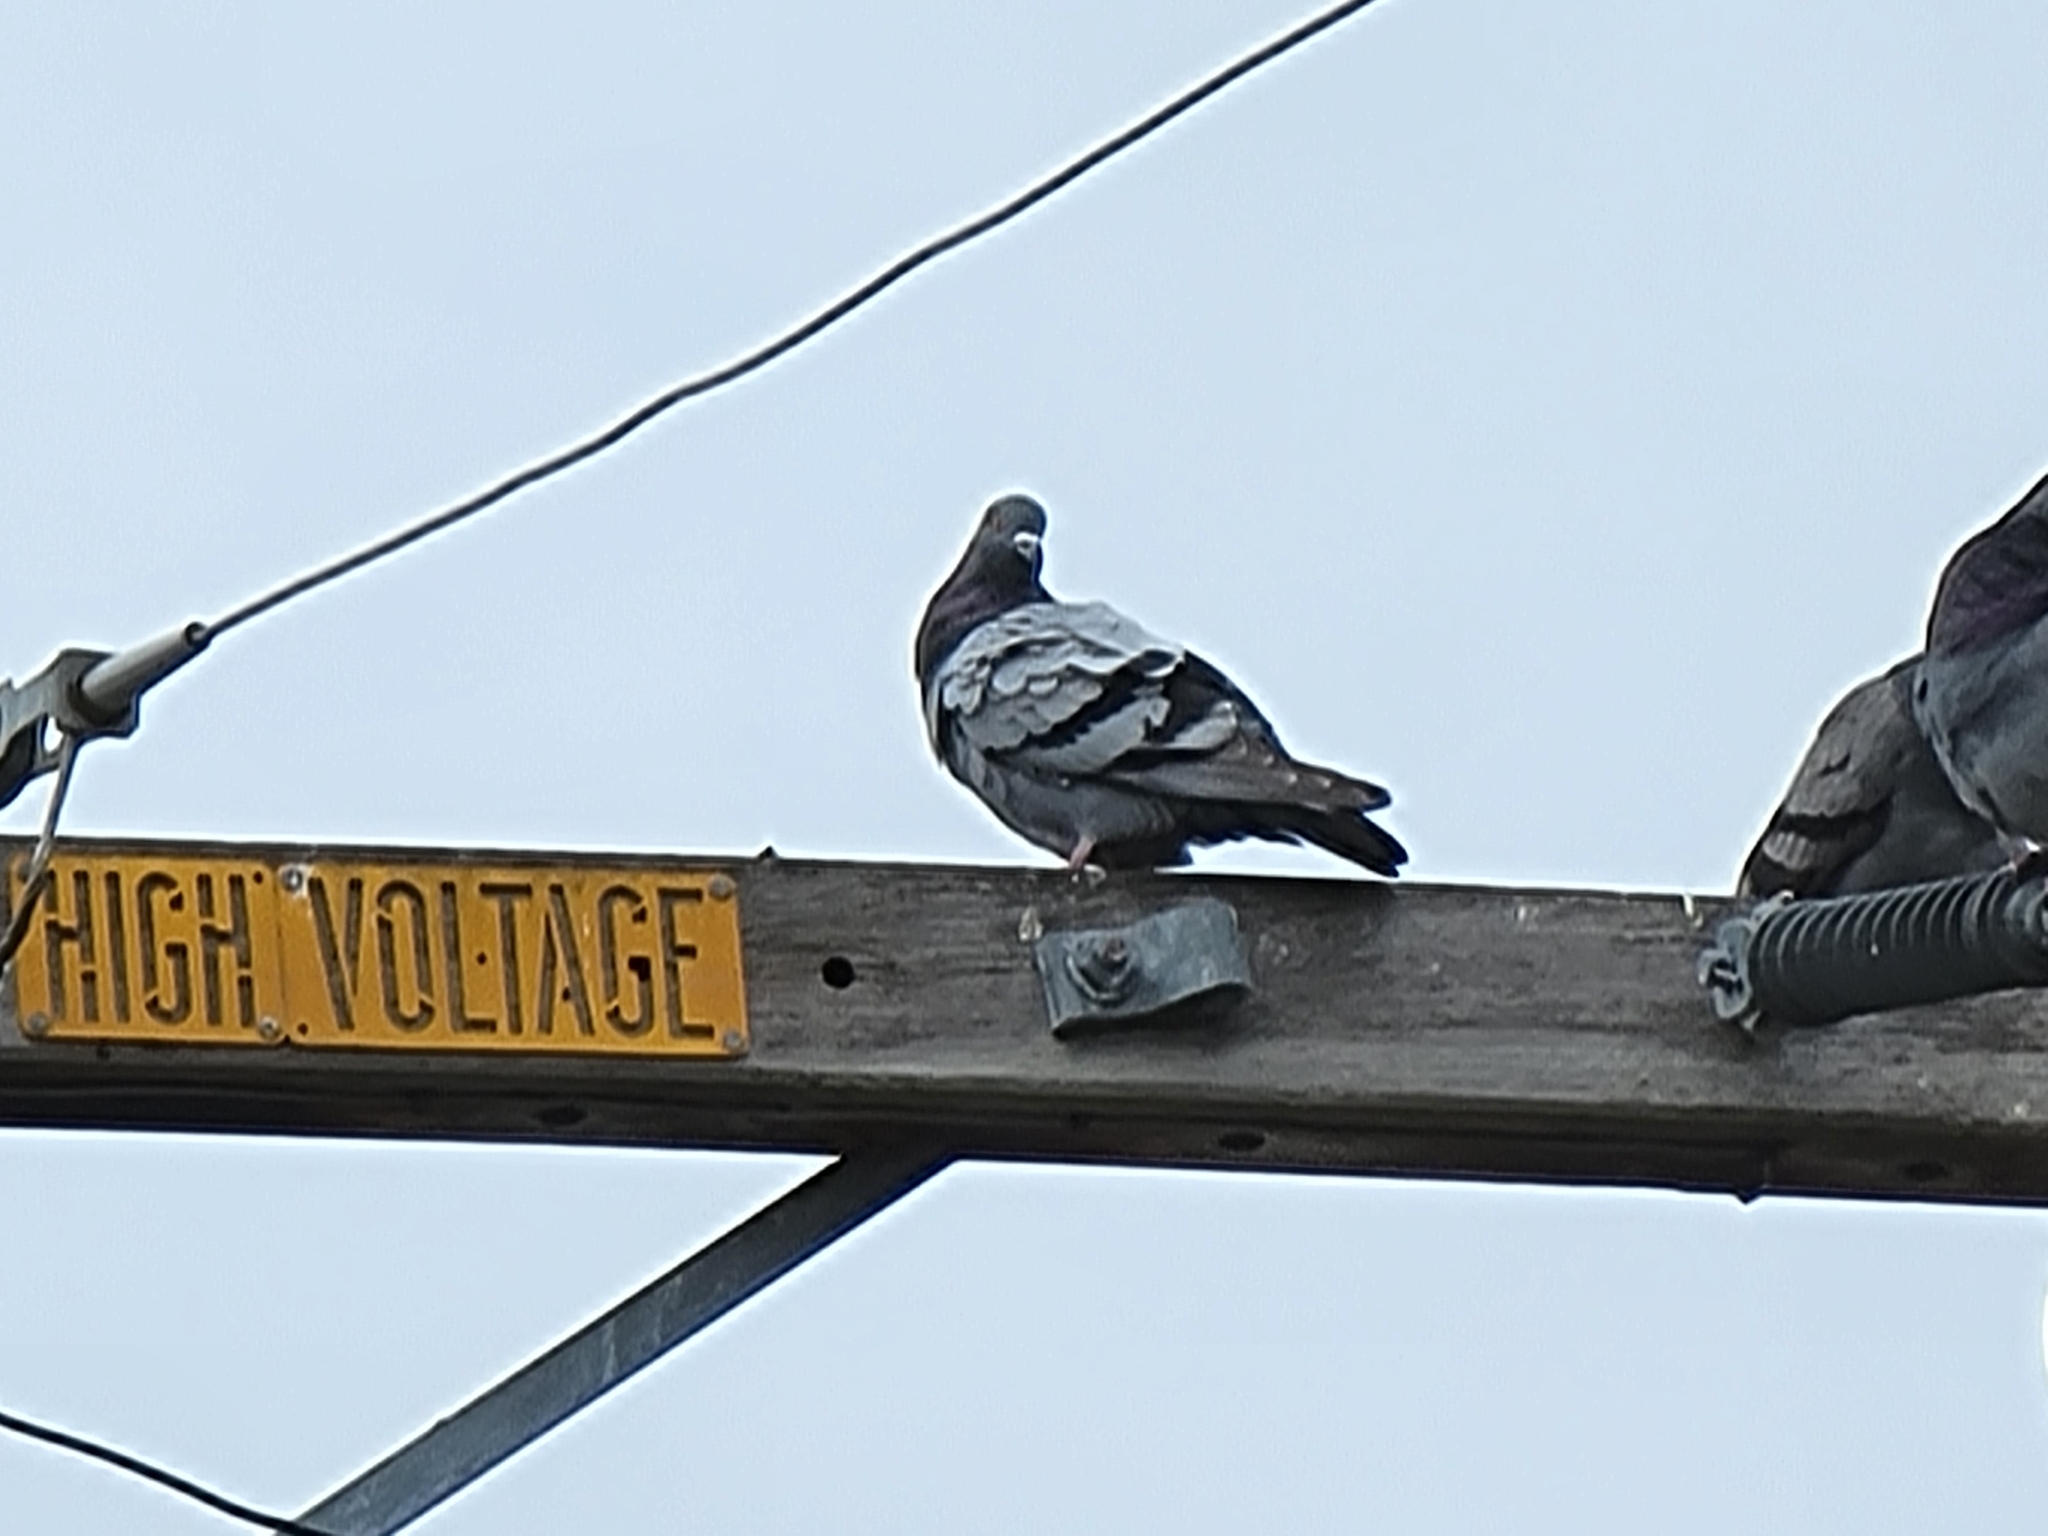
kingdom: Animalia
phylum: Chordata
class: Aves
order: Columbiformes
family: Columbidae
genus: Columba
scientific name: Columba livia
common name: Rock pigeon
